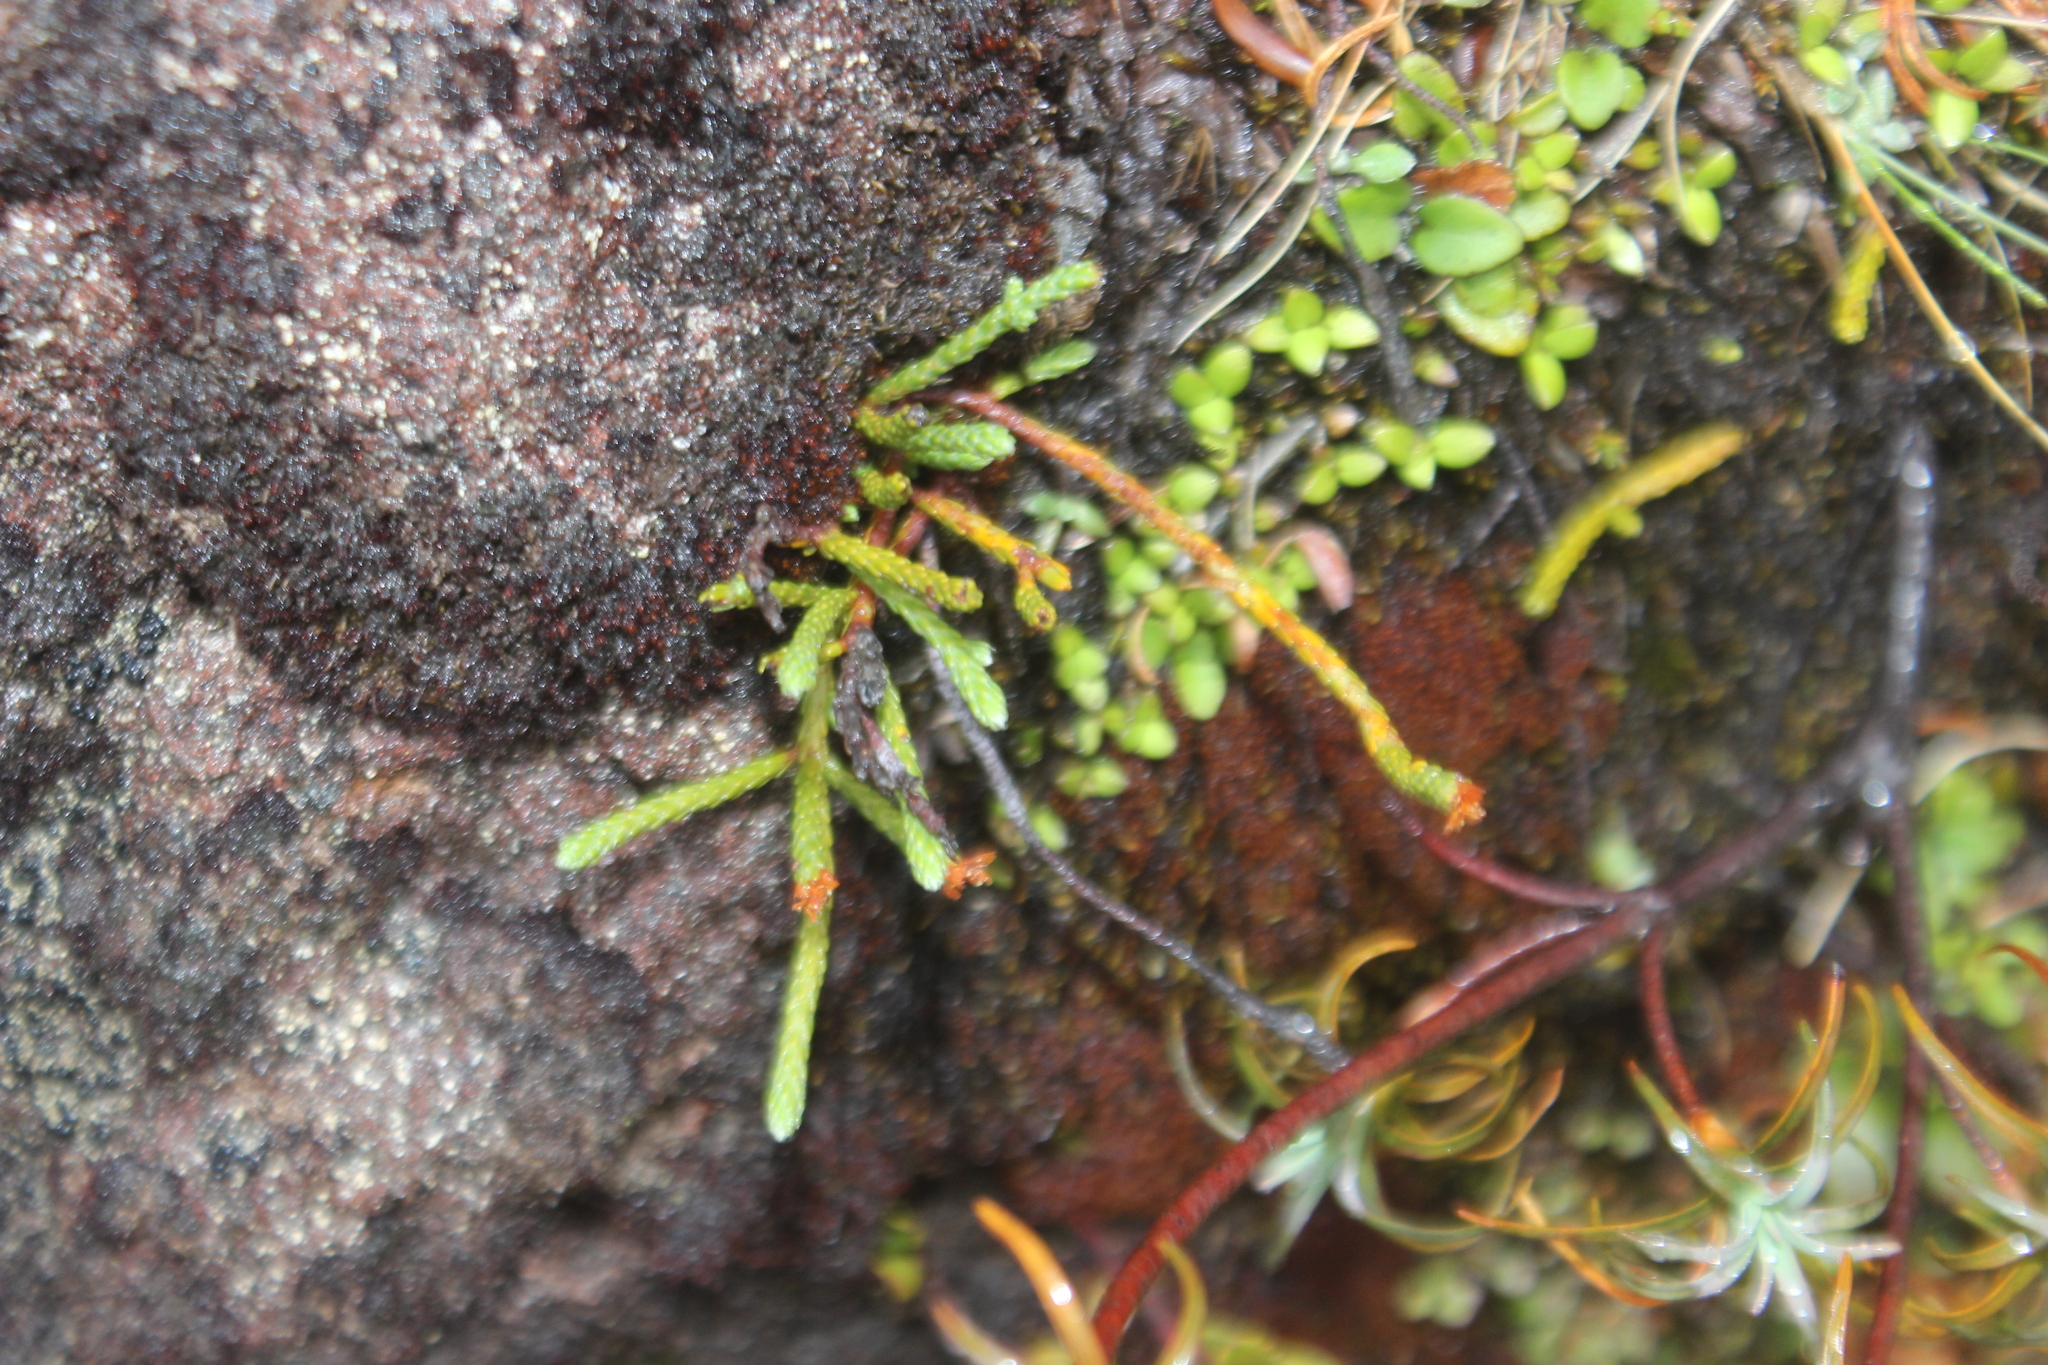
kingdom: Plantae
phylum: Tracheophyta
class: Magnoliopsida
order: Malvales
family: Thymelaeaceae
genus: Kelleria
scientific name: Kelleria dieffenbachii
